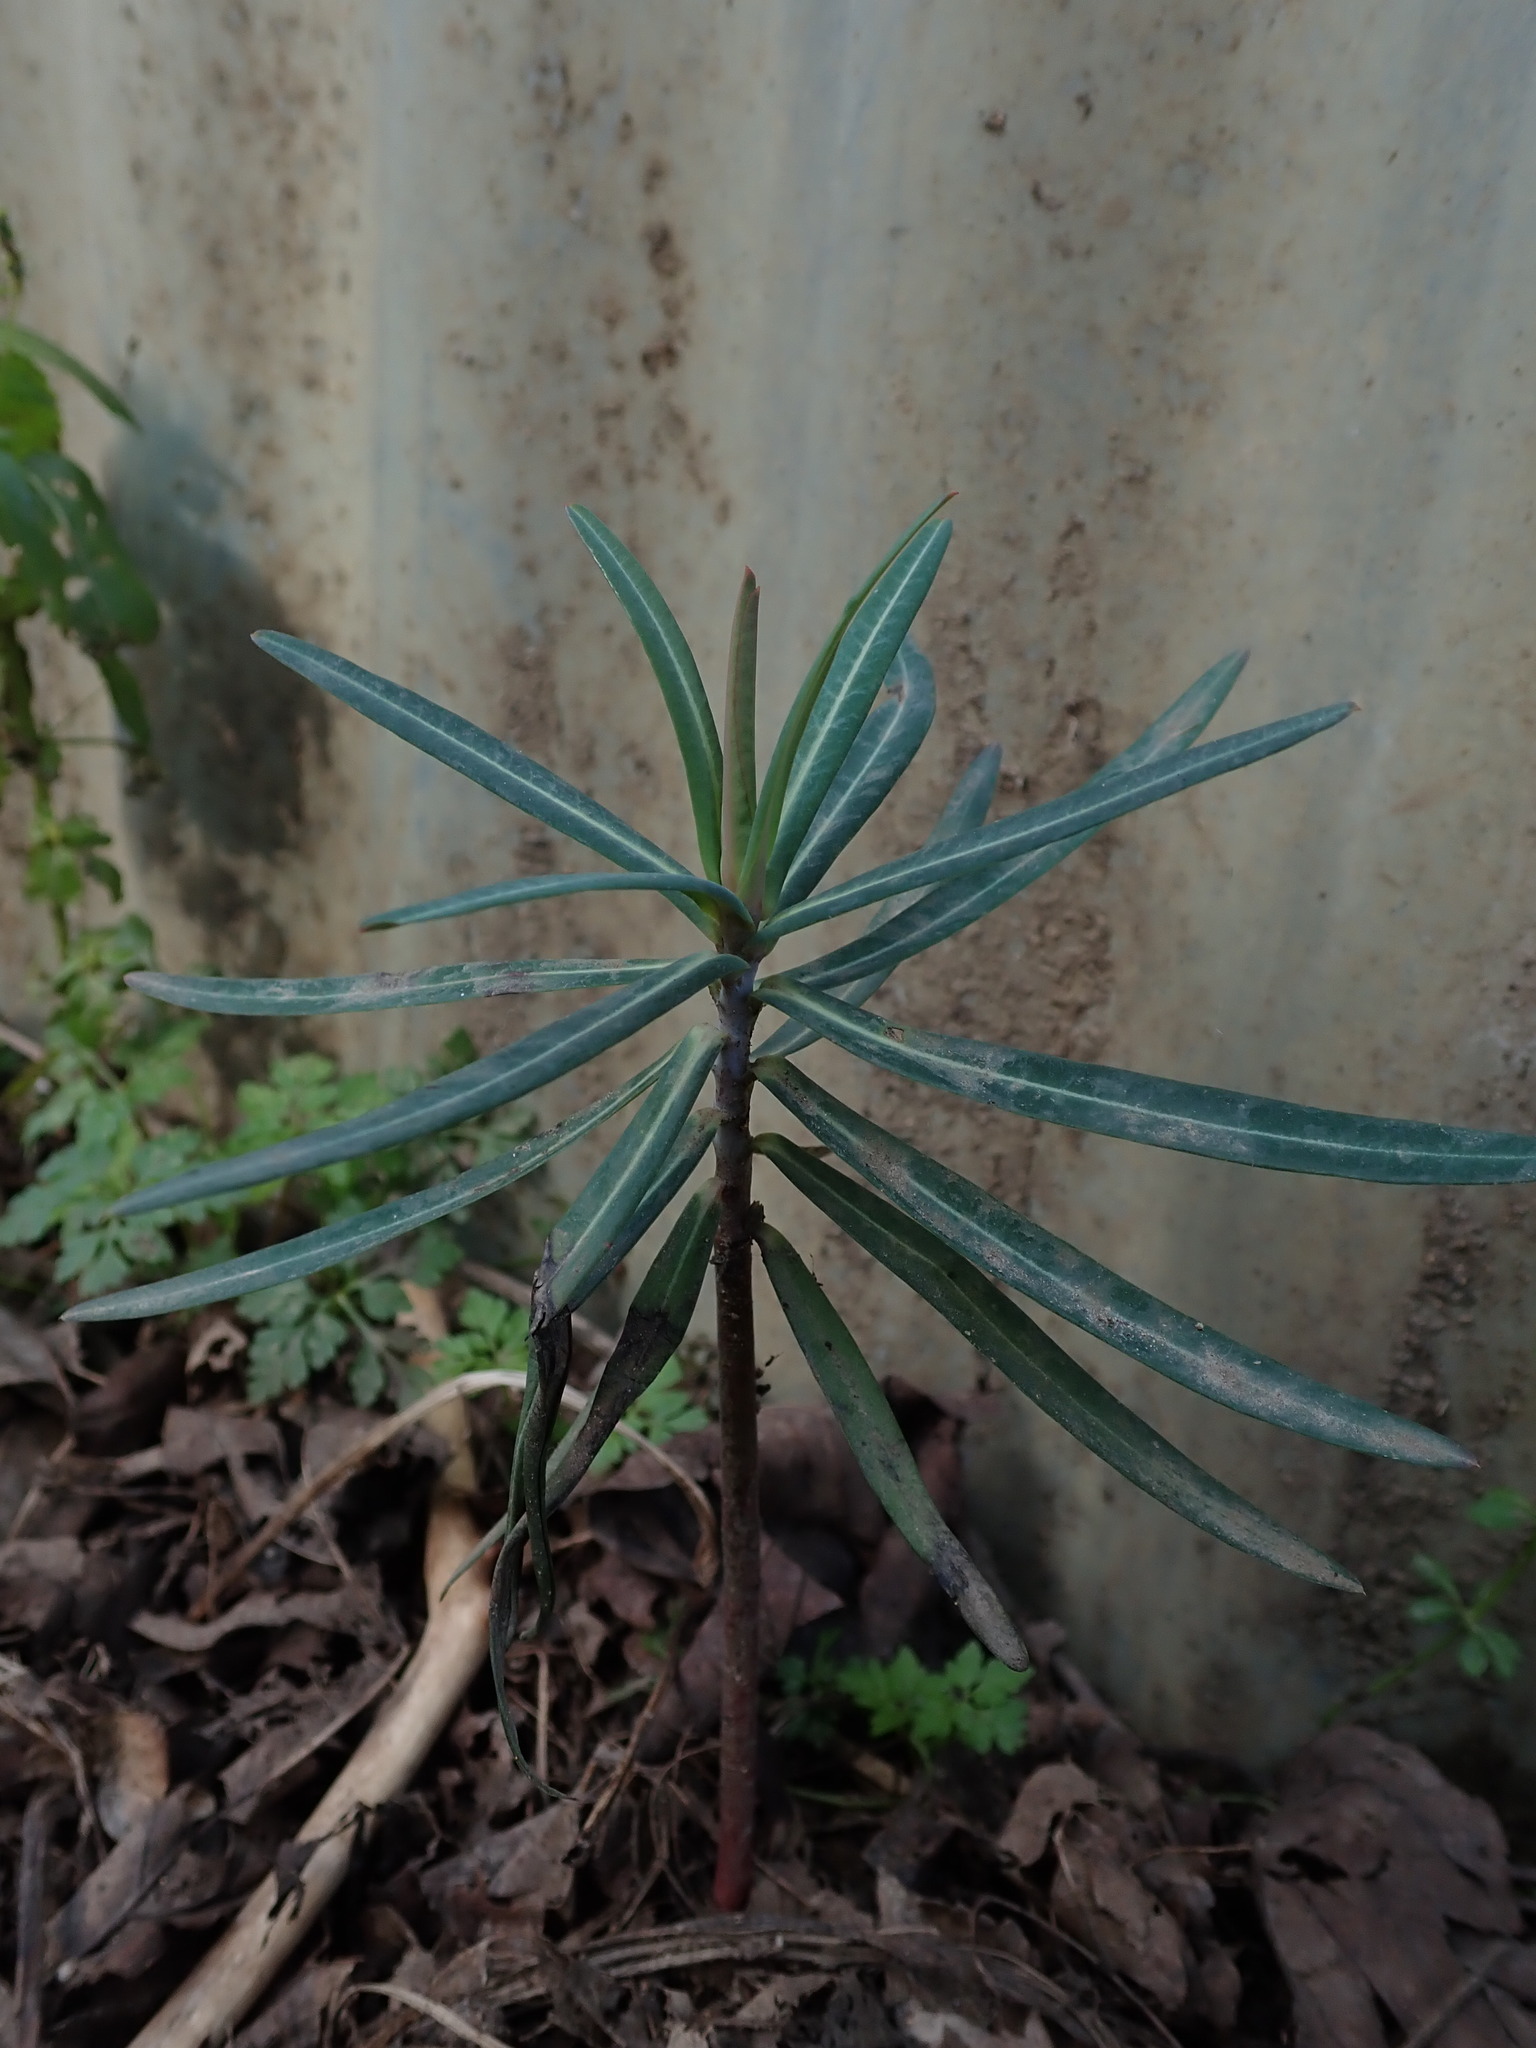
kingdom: Plantae
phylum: Tracheophyta
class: Magnoliopsida
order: Malpighiales
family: Euphorbiaceae
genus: Euphorbia
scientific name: Euphorbia lathyris
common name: Caper spurge
